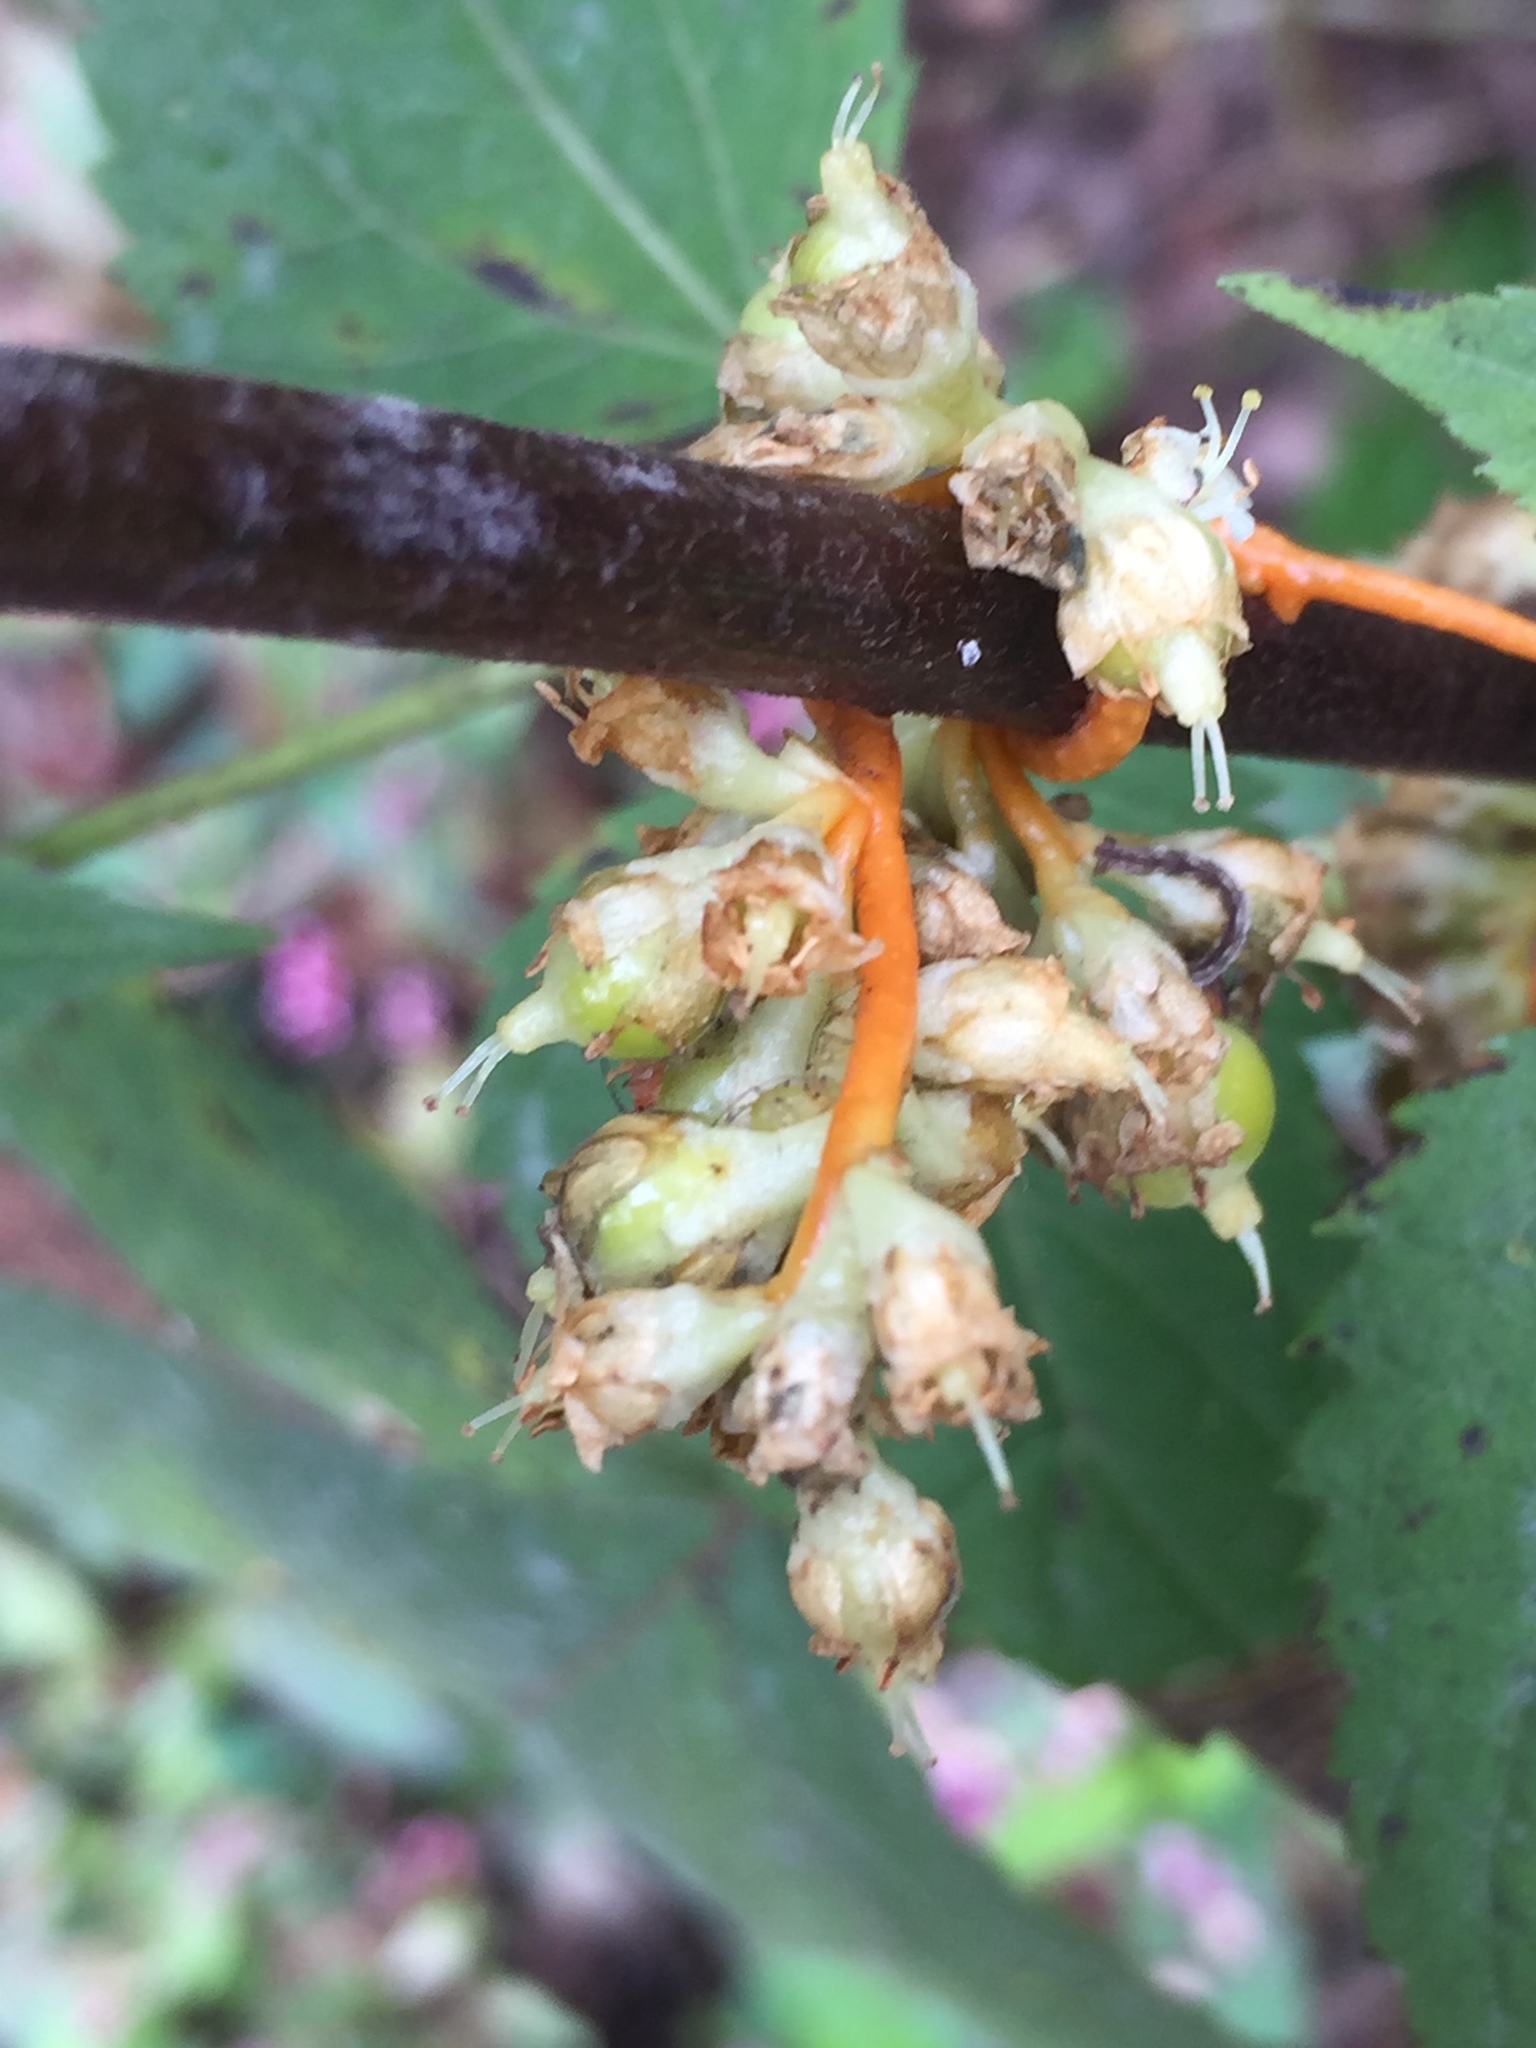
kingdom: Plantae
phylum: Tracheophyta
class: Magnoliopsida
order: Solanales
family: Convolvulaceae
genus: Cuscuta
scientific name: Cuscuta rostrata
